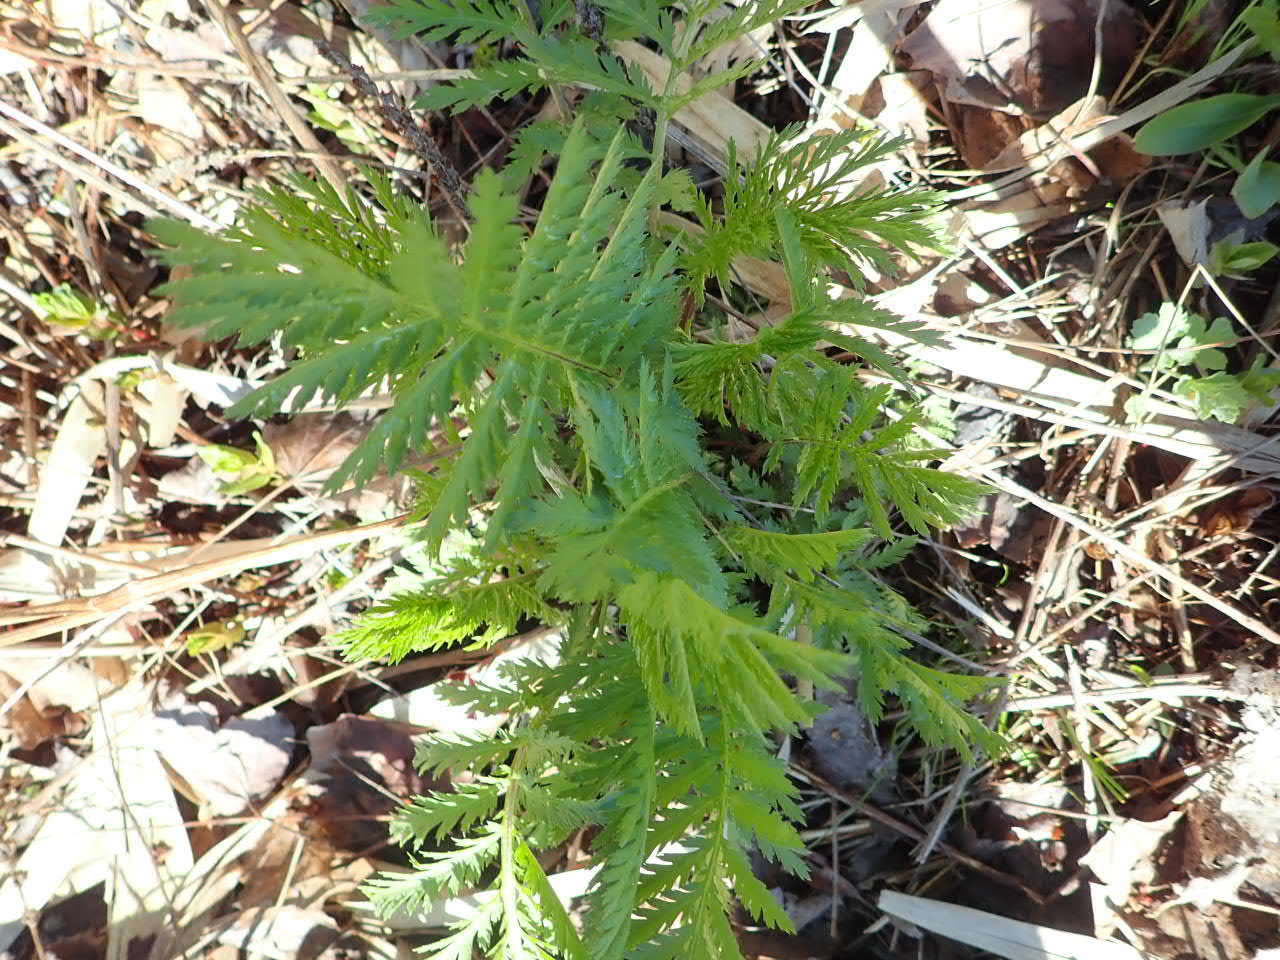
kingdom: Plantae
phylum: Tracheophyta
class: Magnoliopsida
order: Asterales
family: Asteraceae
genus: Tanacetum
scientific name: Tanacetum vulgare
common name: Common tansy
